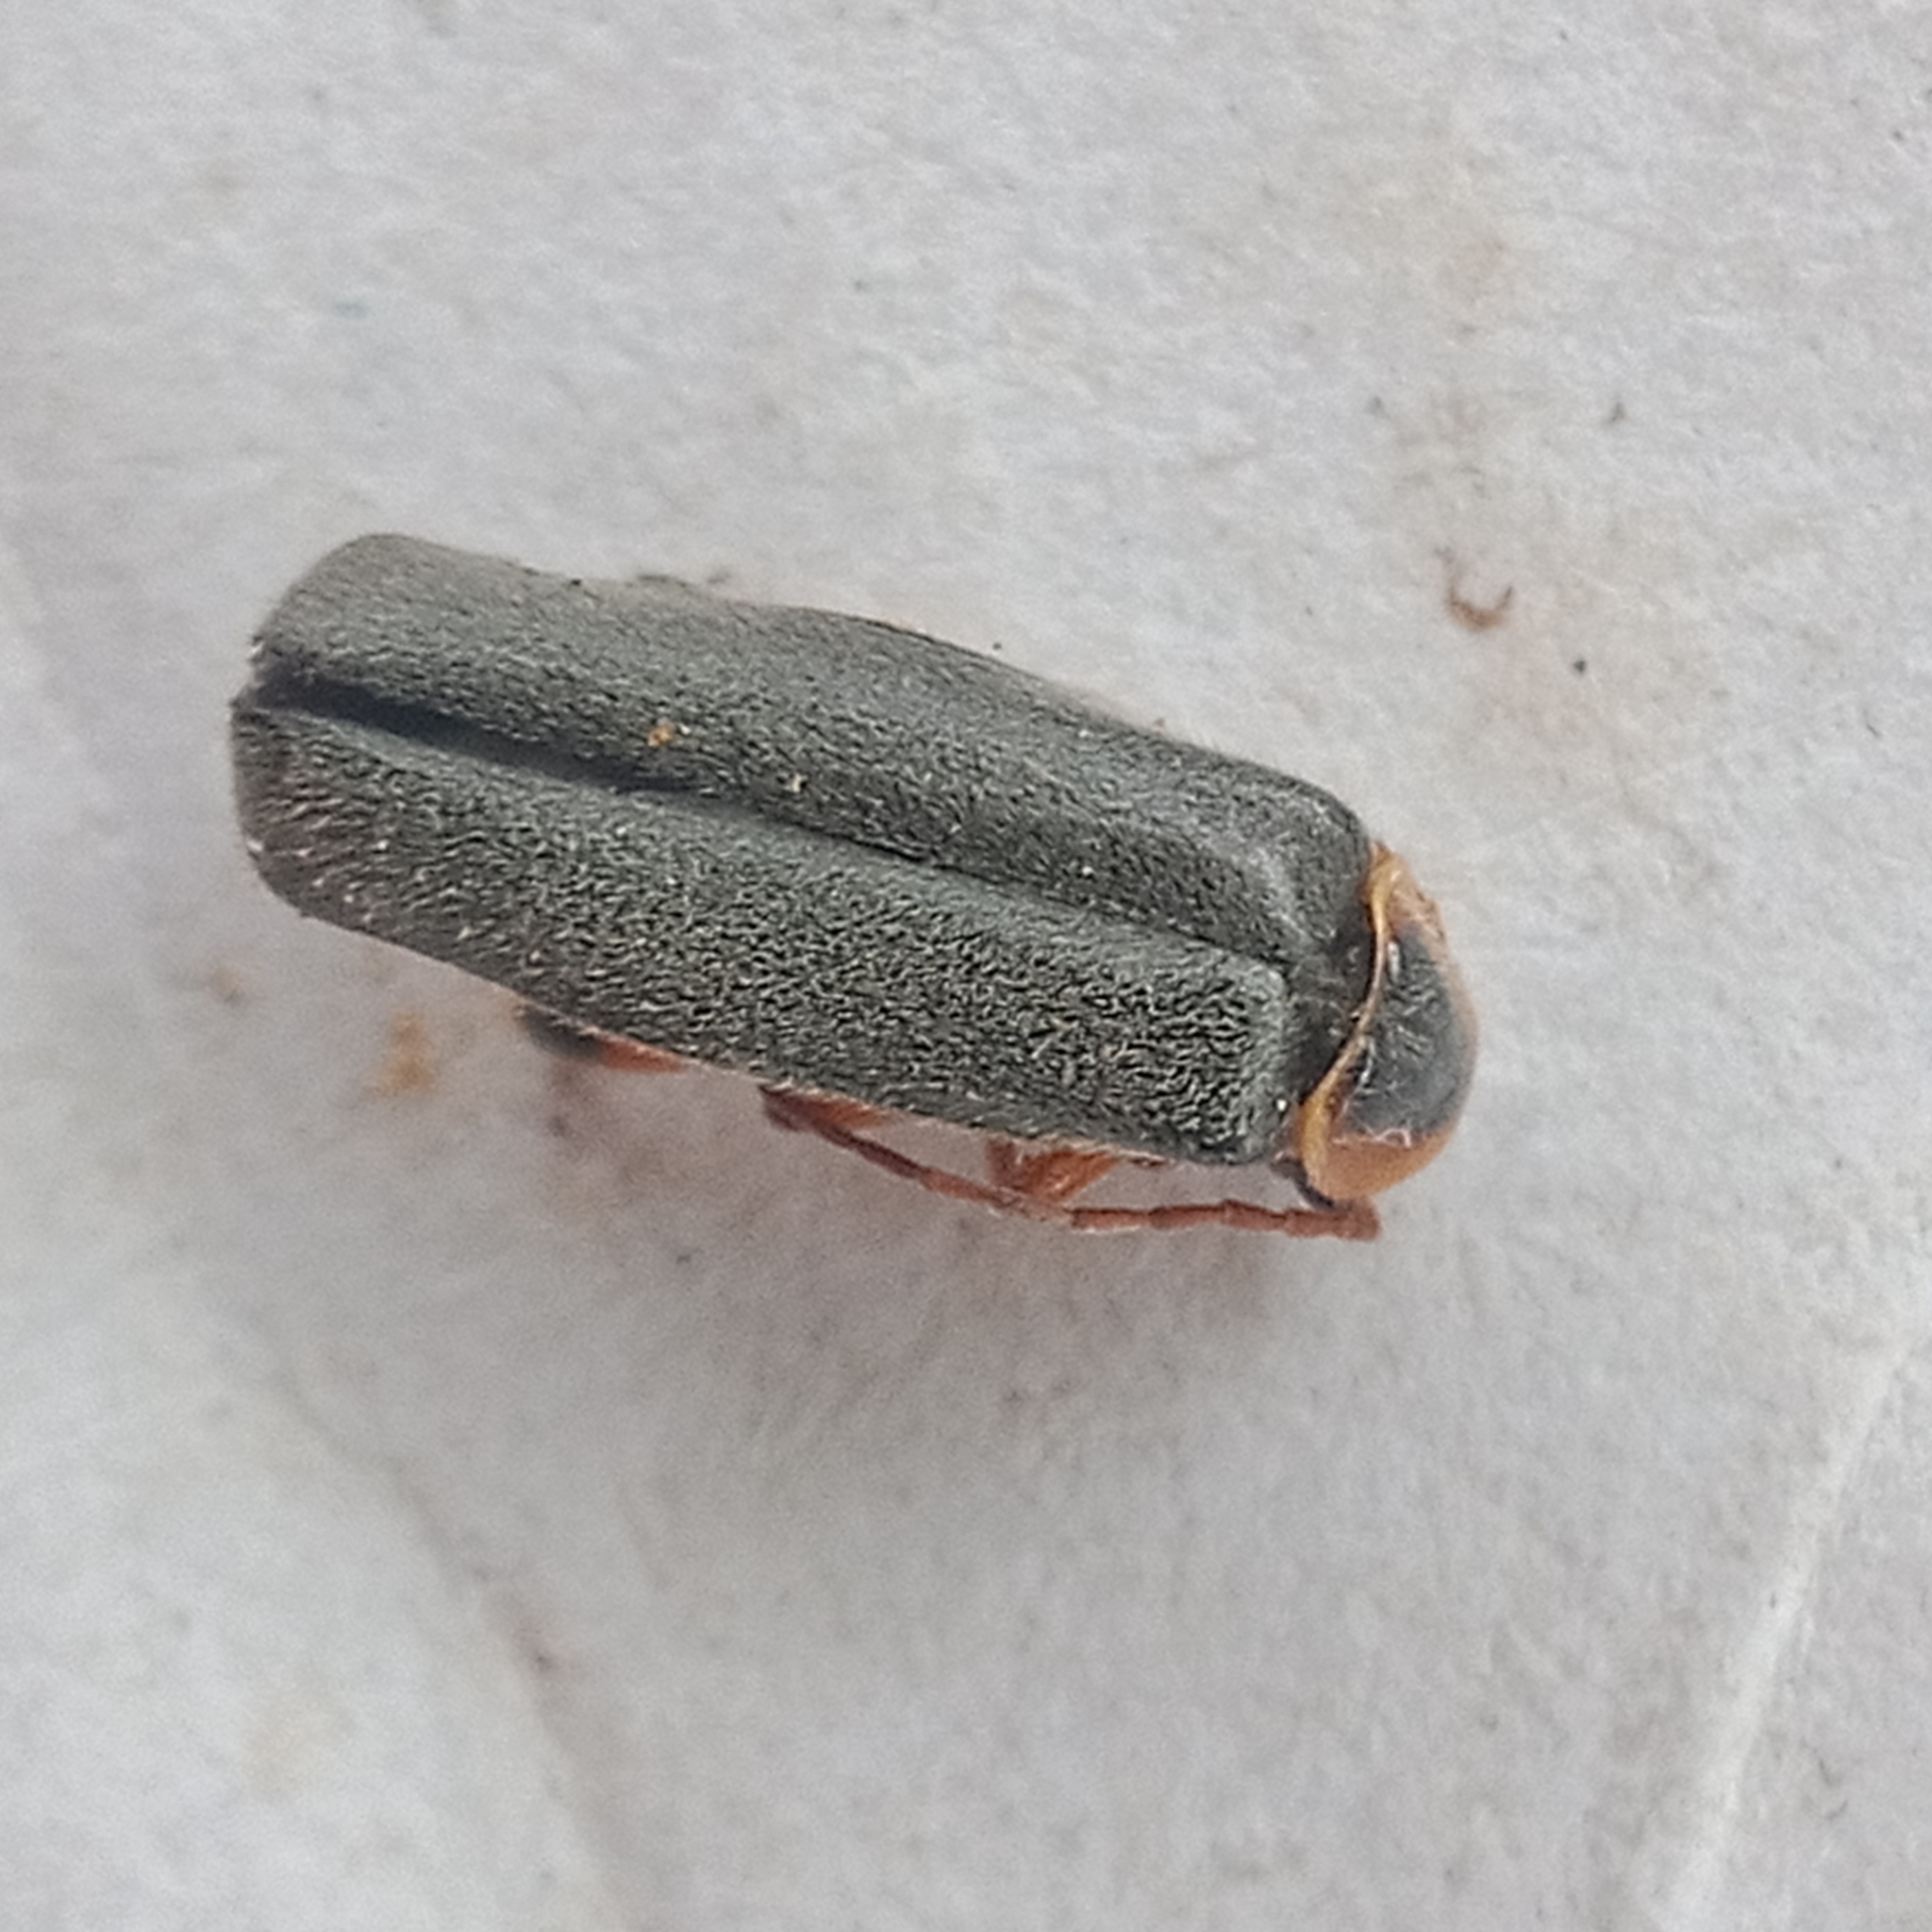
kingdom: Animalia
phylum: Arthropoda
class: Insecta
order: Coleoptera
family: Cantharidae
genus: Cantharis
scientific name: Cantharis nigricans
